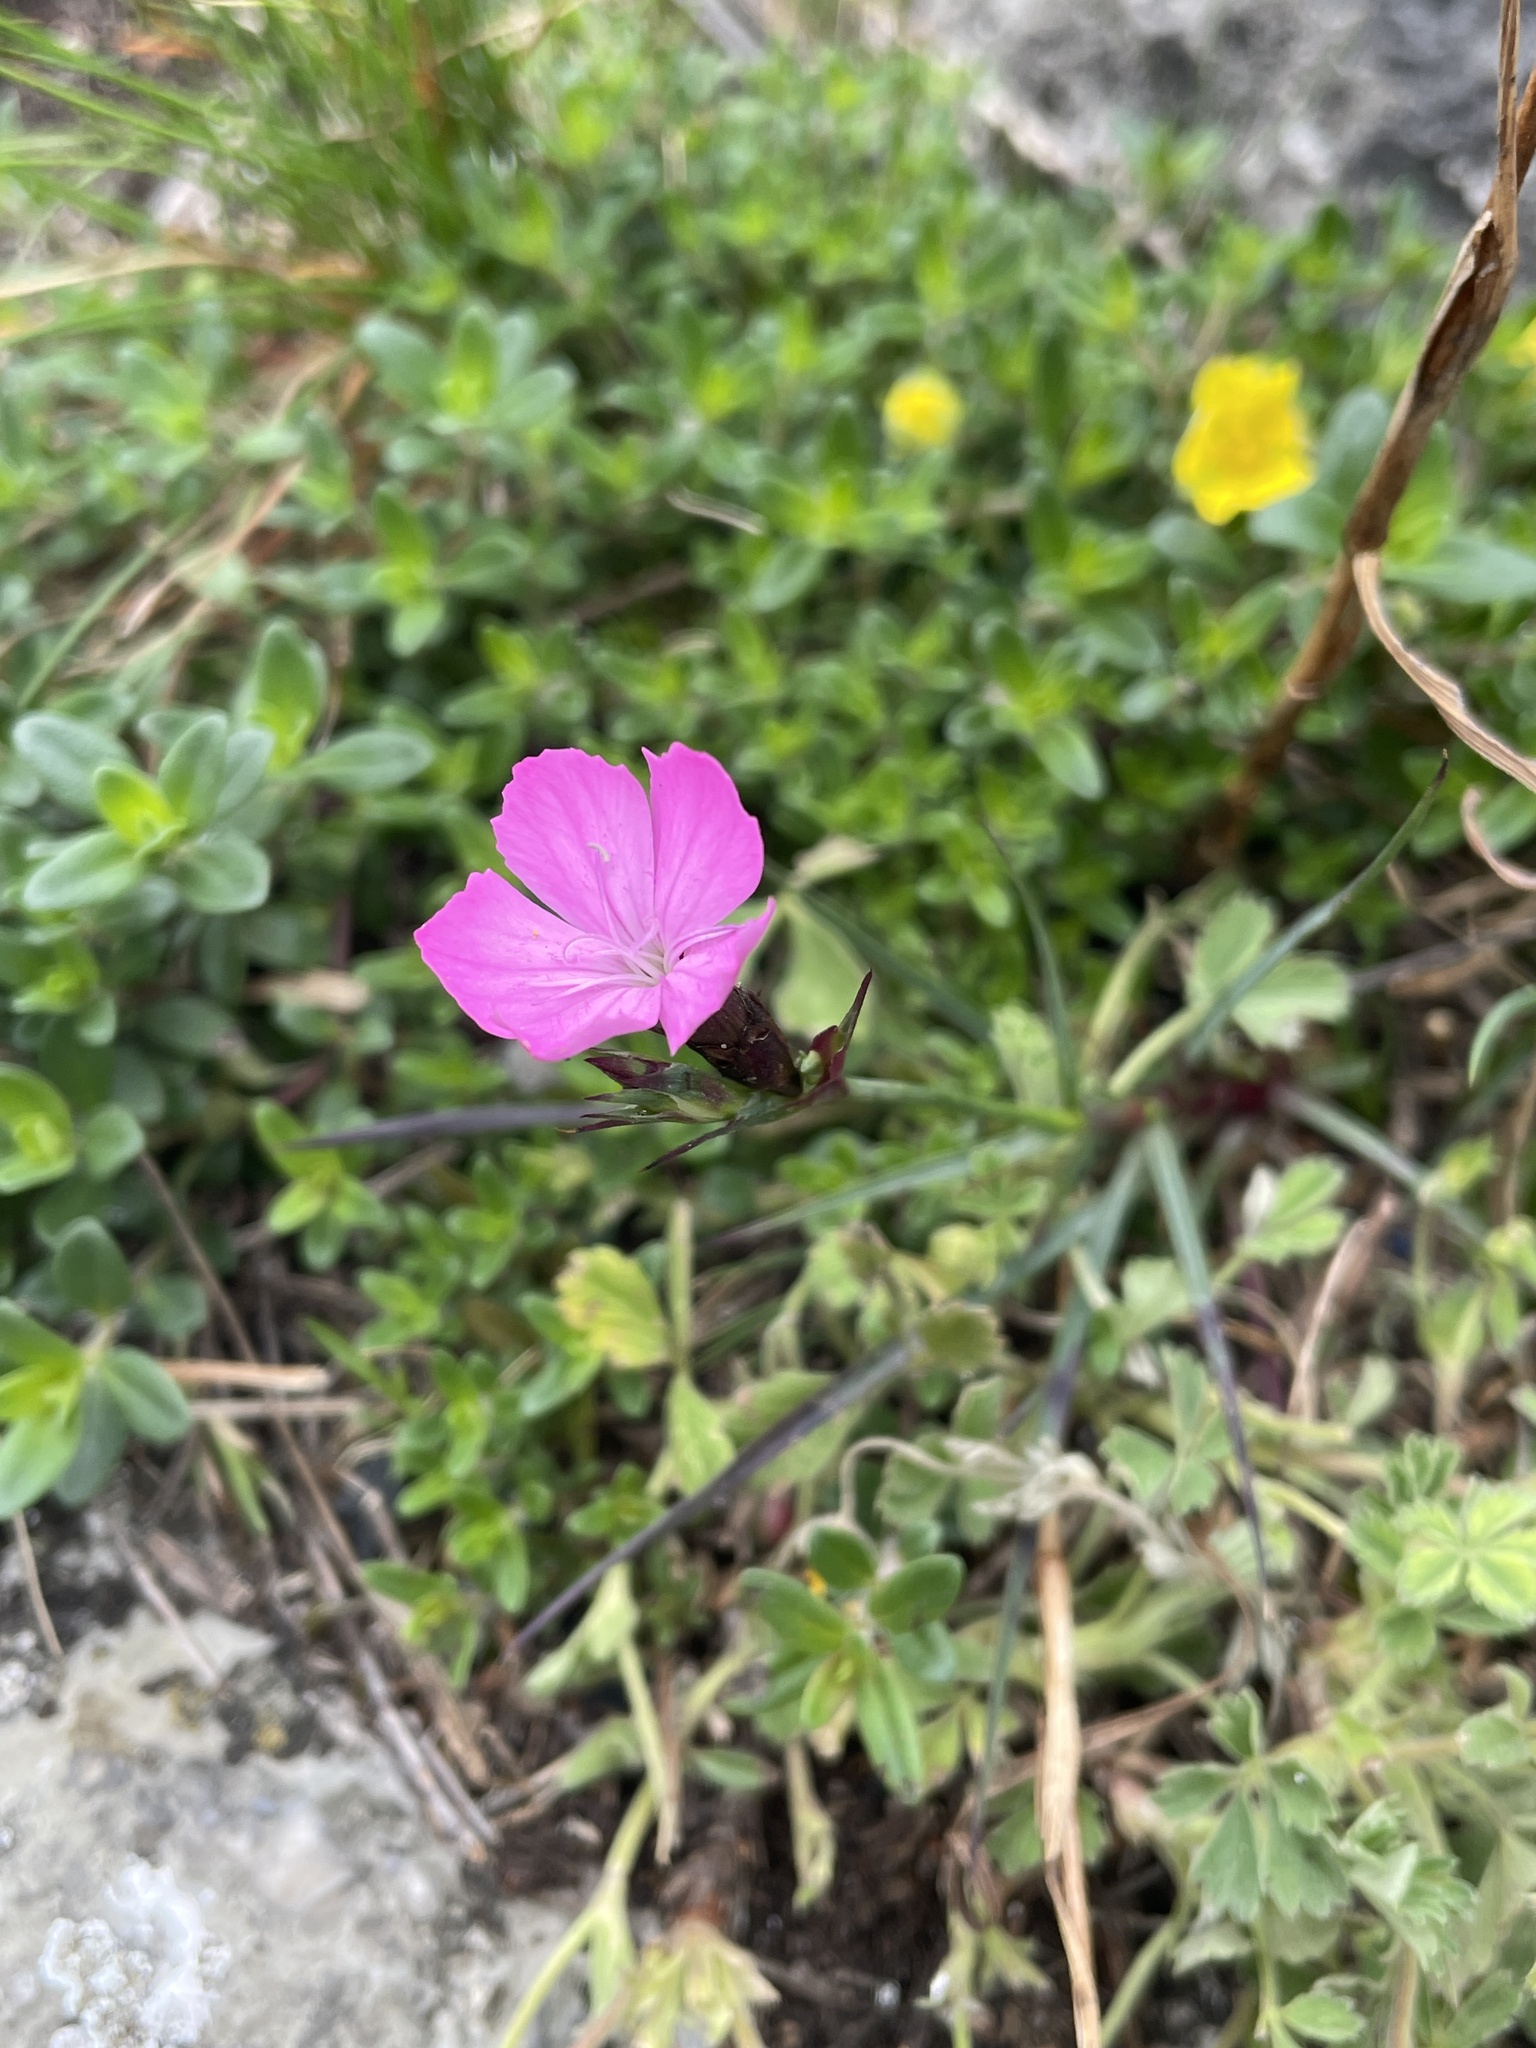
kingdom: Plantae
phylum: Tracheophyta
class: Magnoliopsida
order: Caryophyllales
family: Caryophyllaceae
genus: Dianthus
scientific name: Dianthus carthusianorum
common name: Carthusian pink
